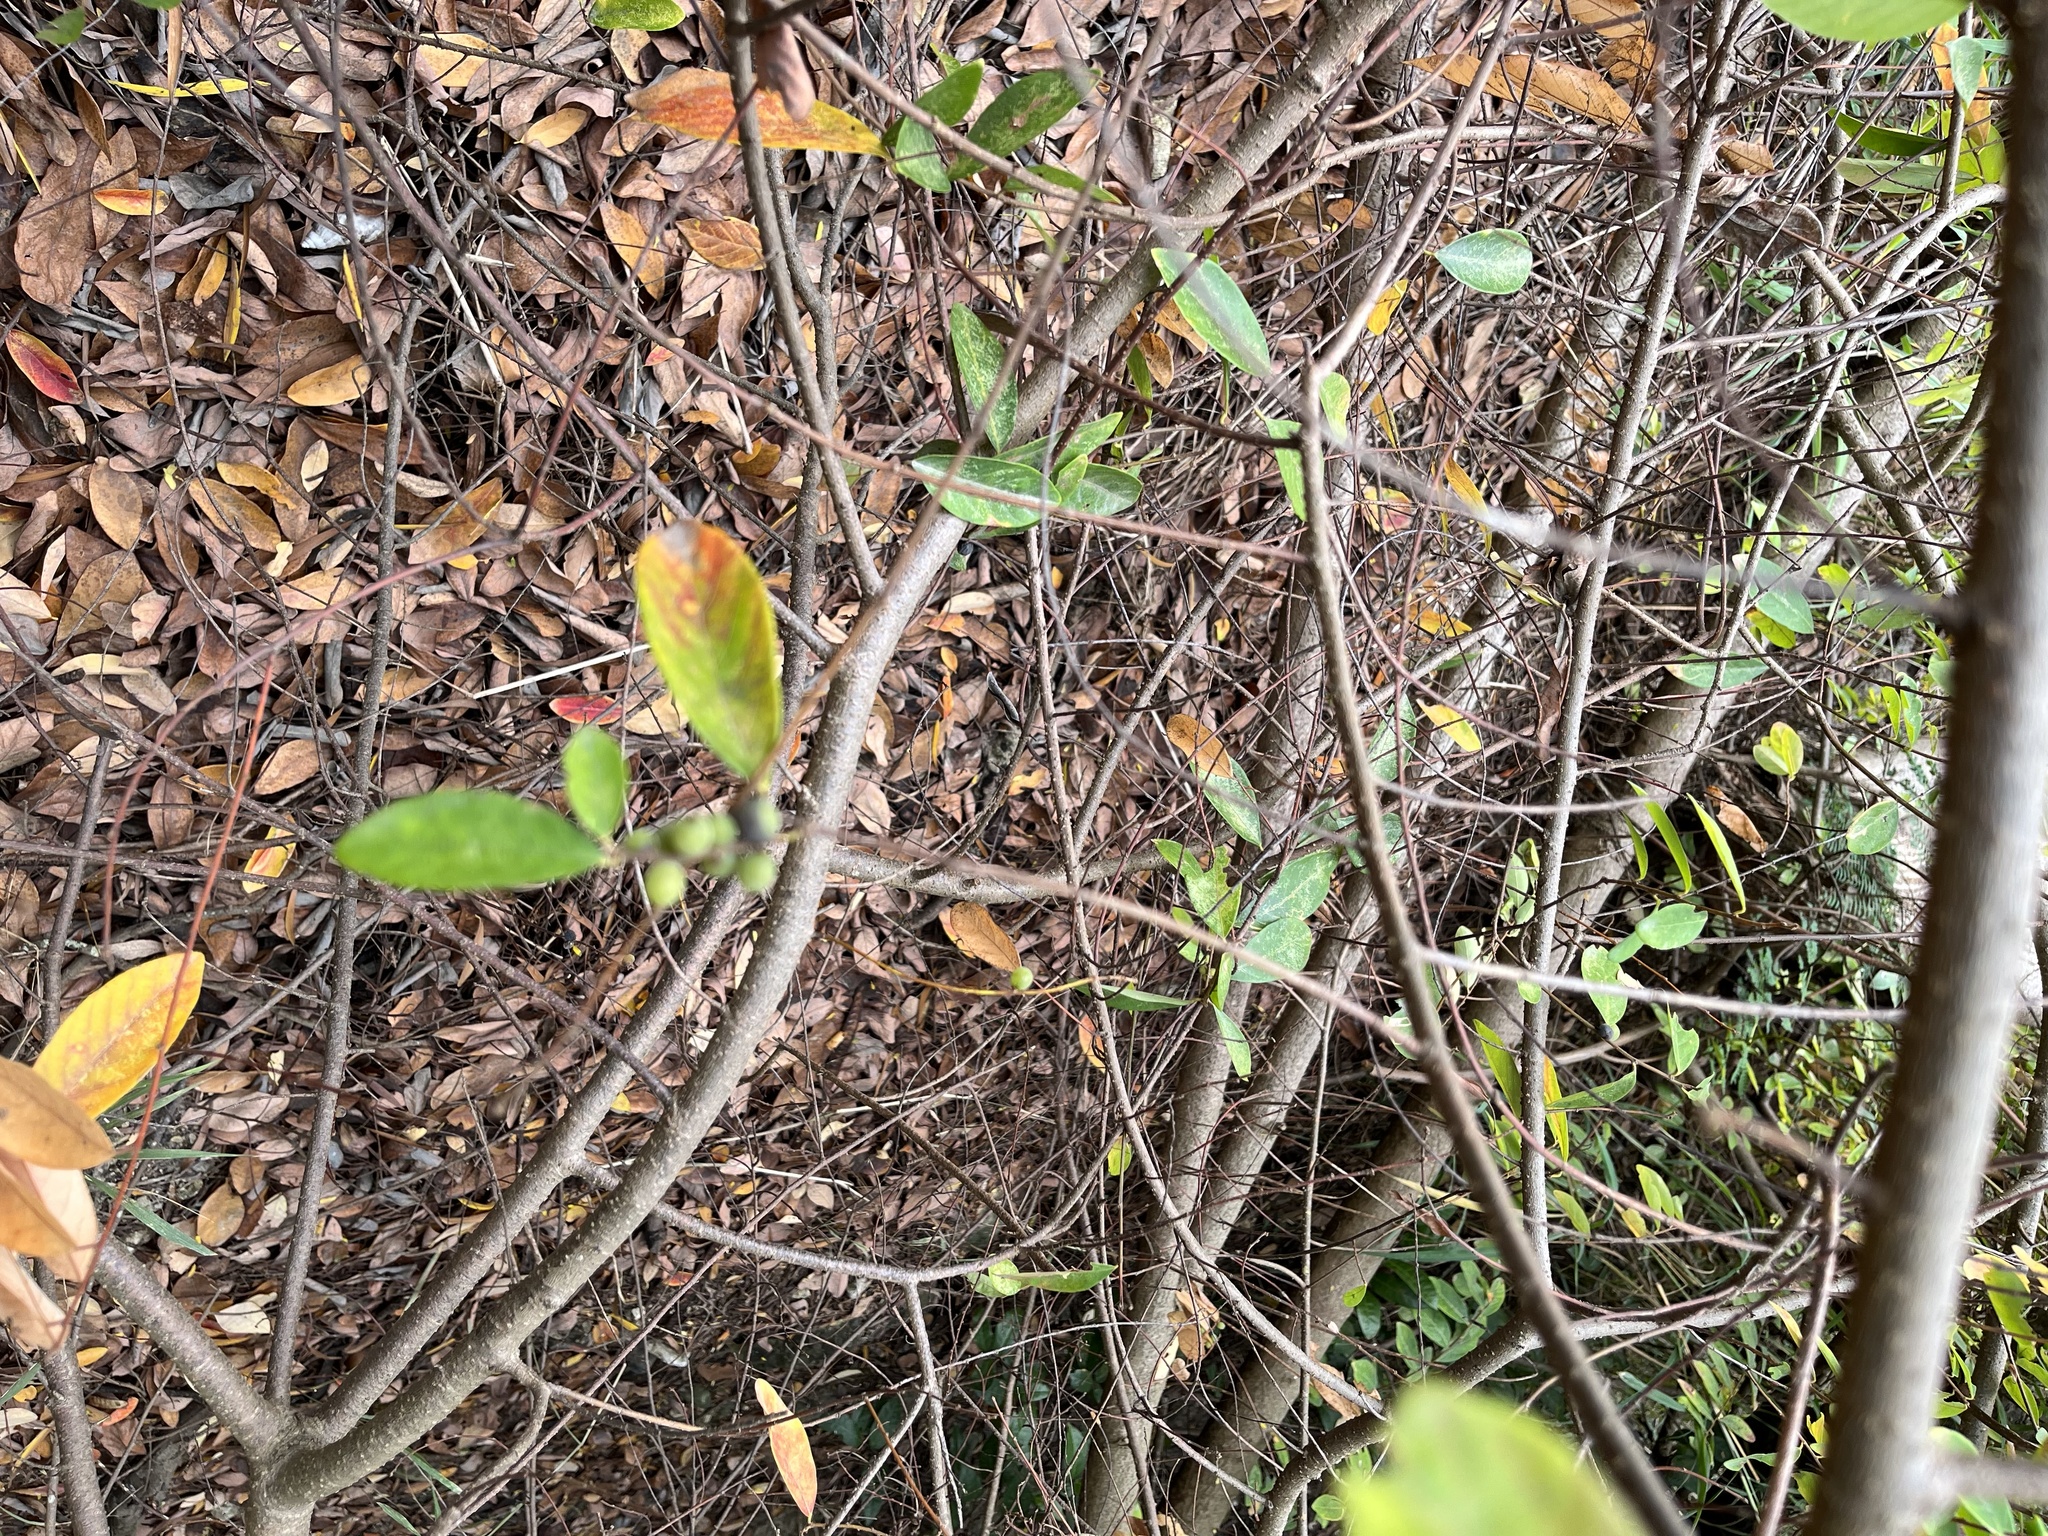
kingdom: Plantae
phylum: Tracheophyta
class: Magnoliopsida
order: Malpighiales
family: Phyllanthaceae
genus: Bridelia
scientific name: Bridelia tomentosa
